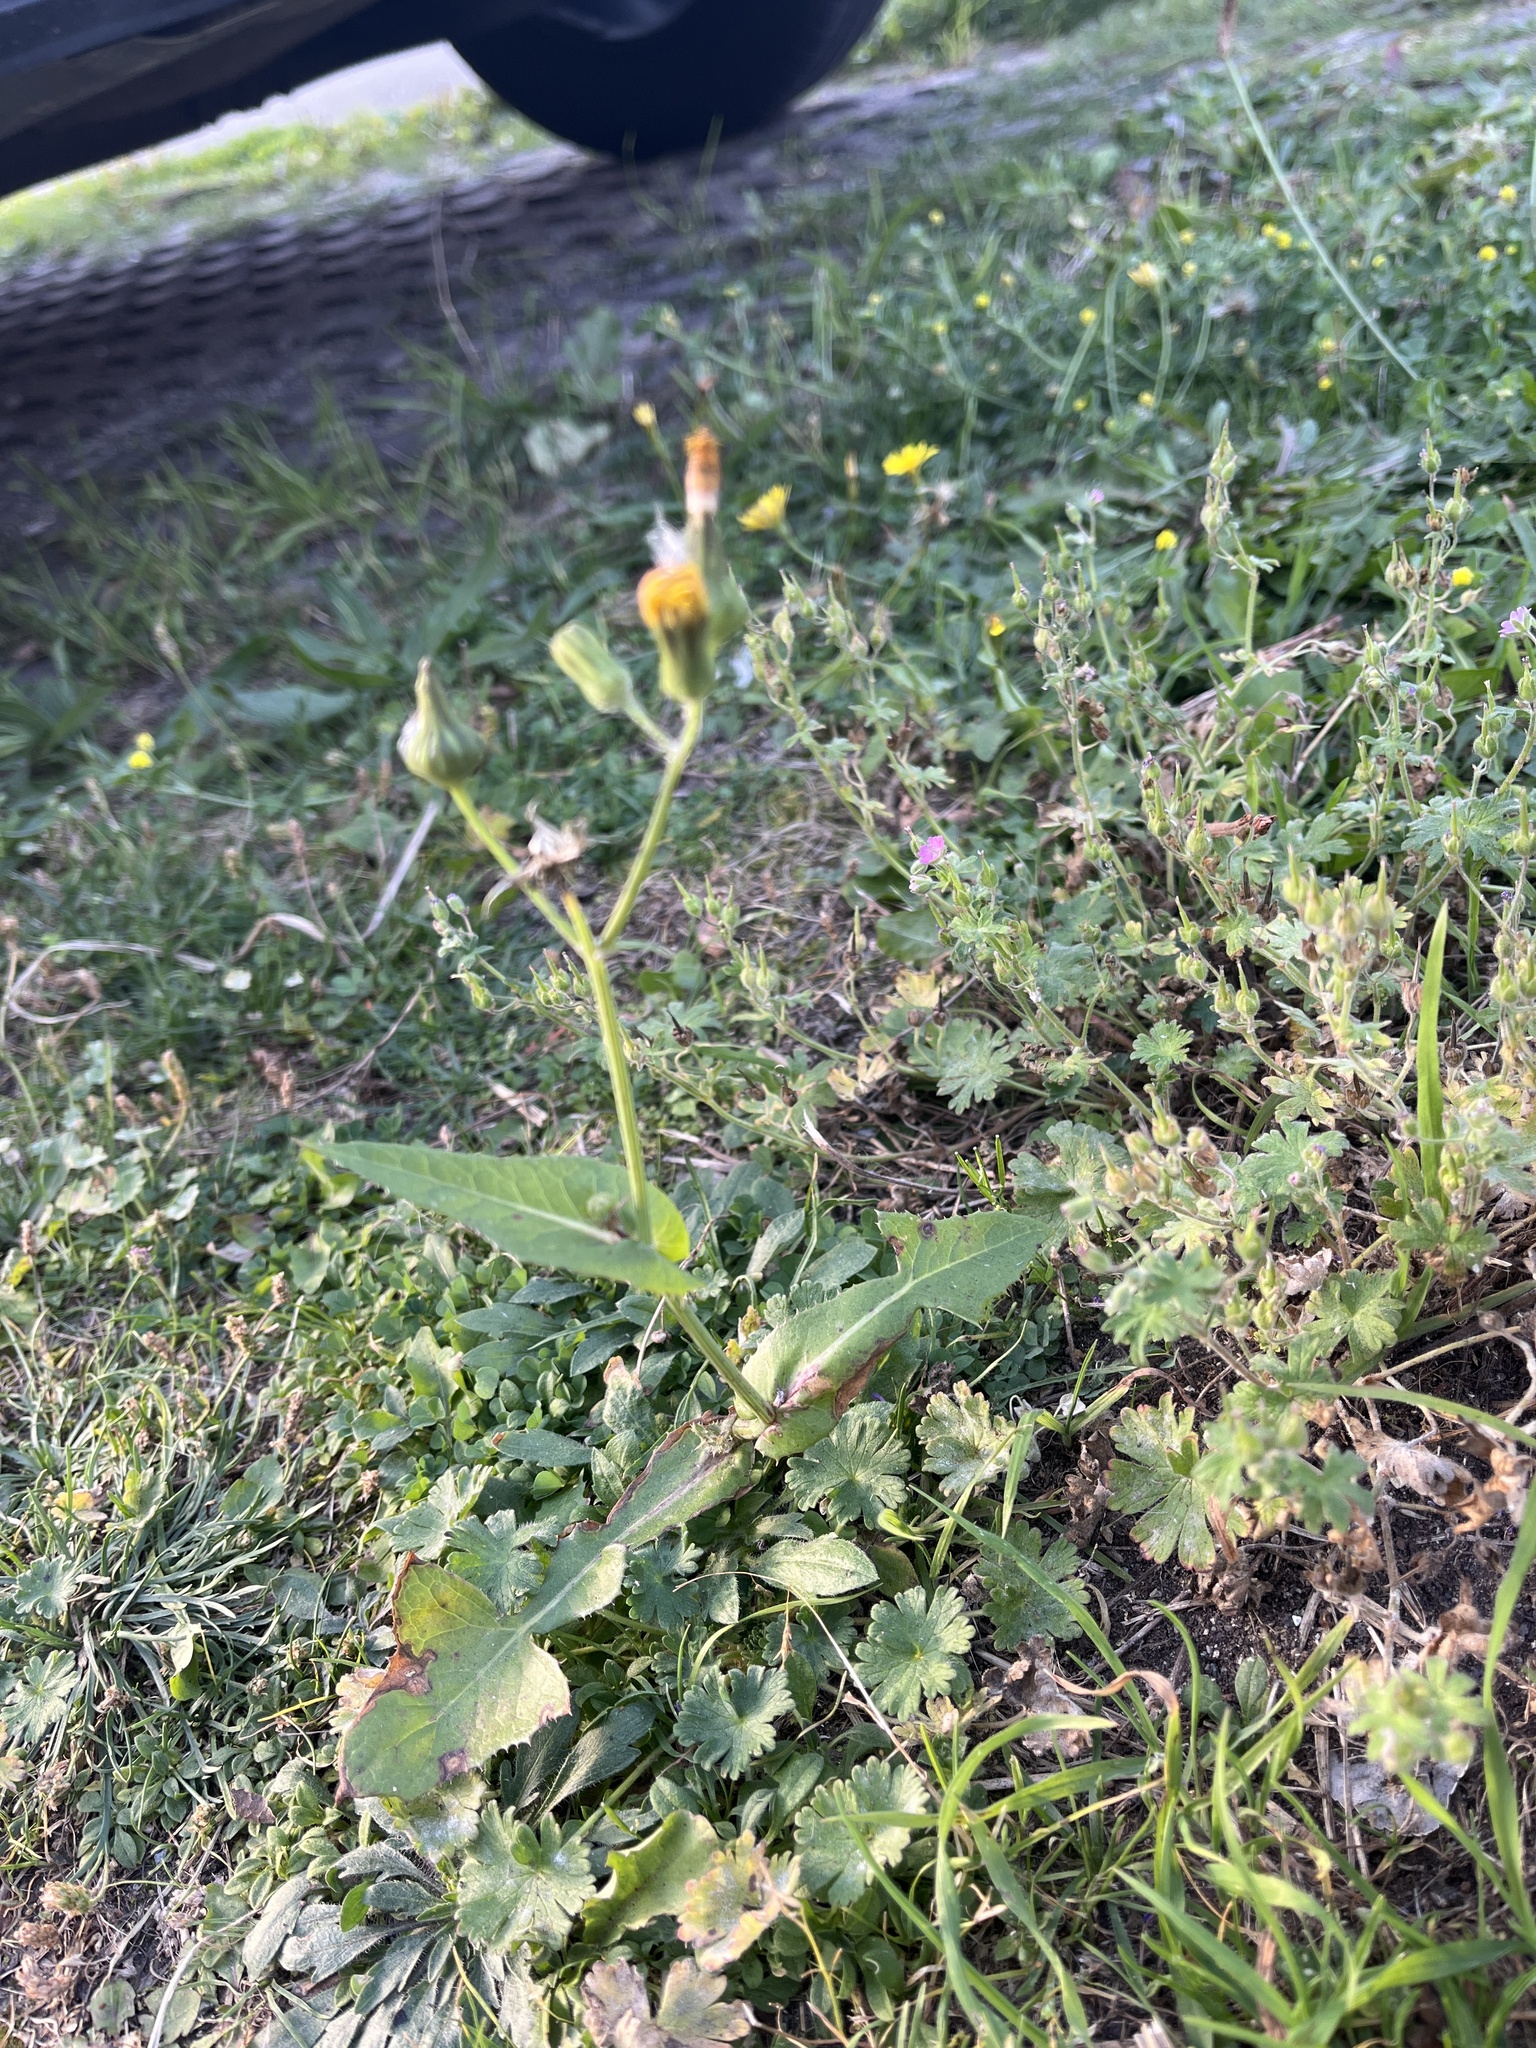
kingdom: Plantae
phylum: Tracheophyta
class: Magnoliopsida
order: Asterales
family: Asteraceae
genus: Sonchus
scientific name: Sonchus oleraceus
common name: Common sowthistle
